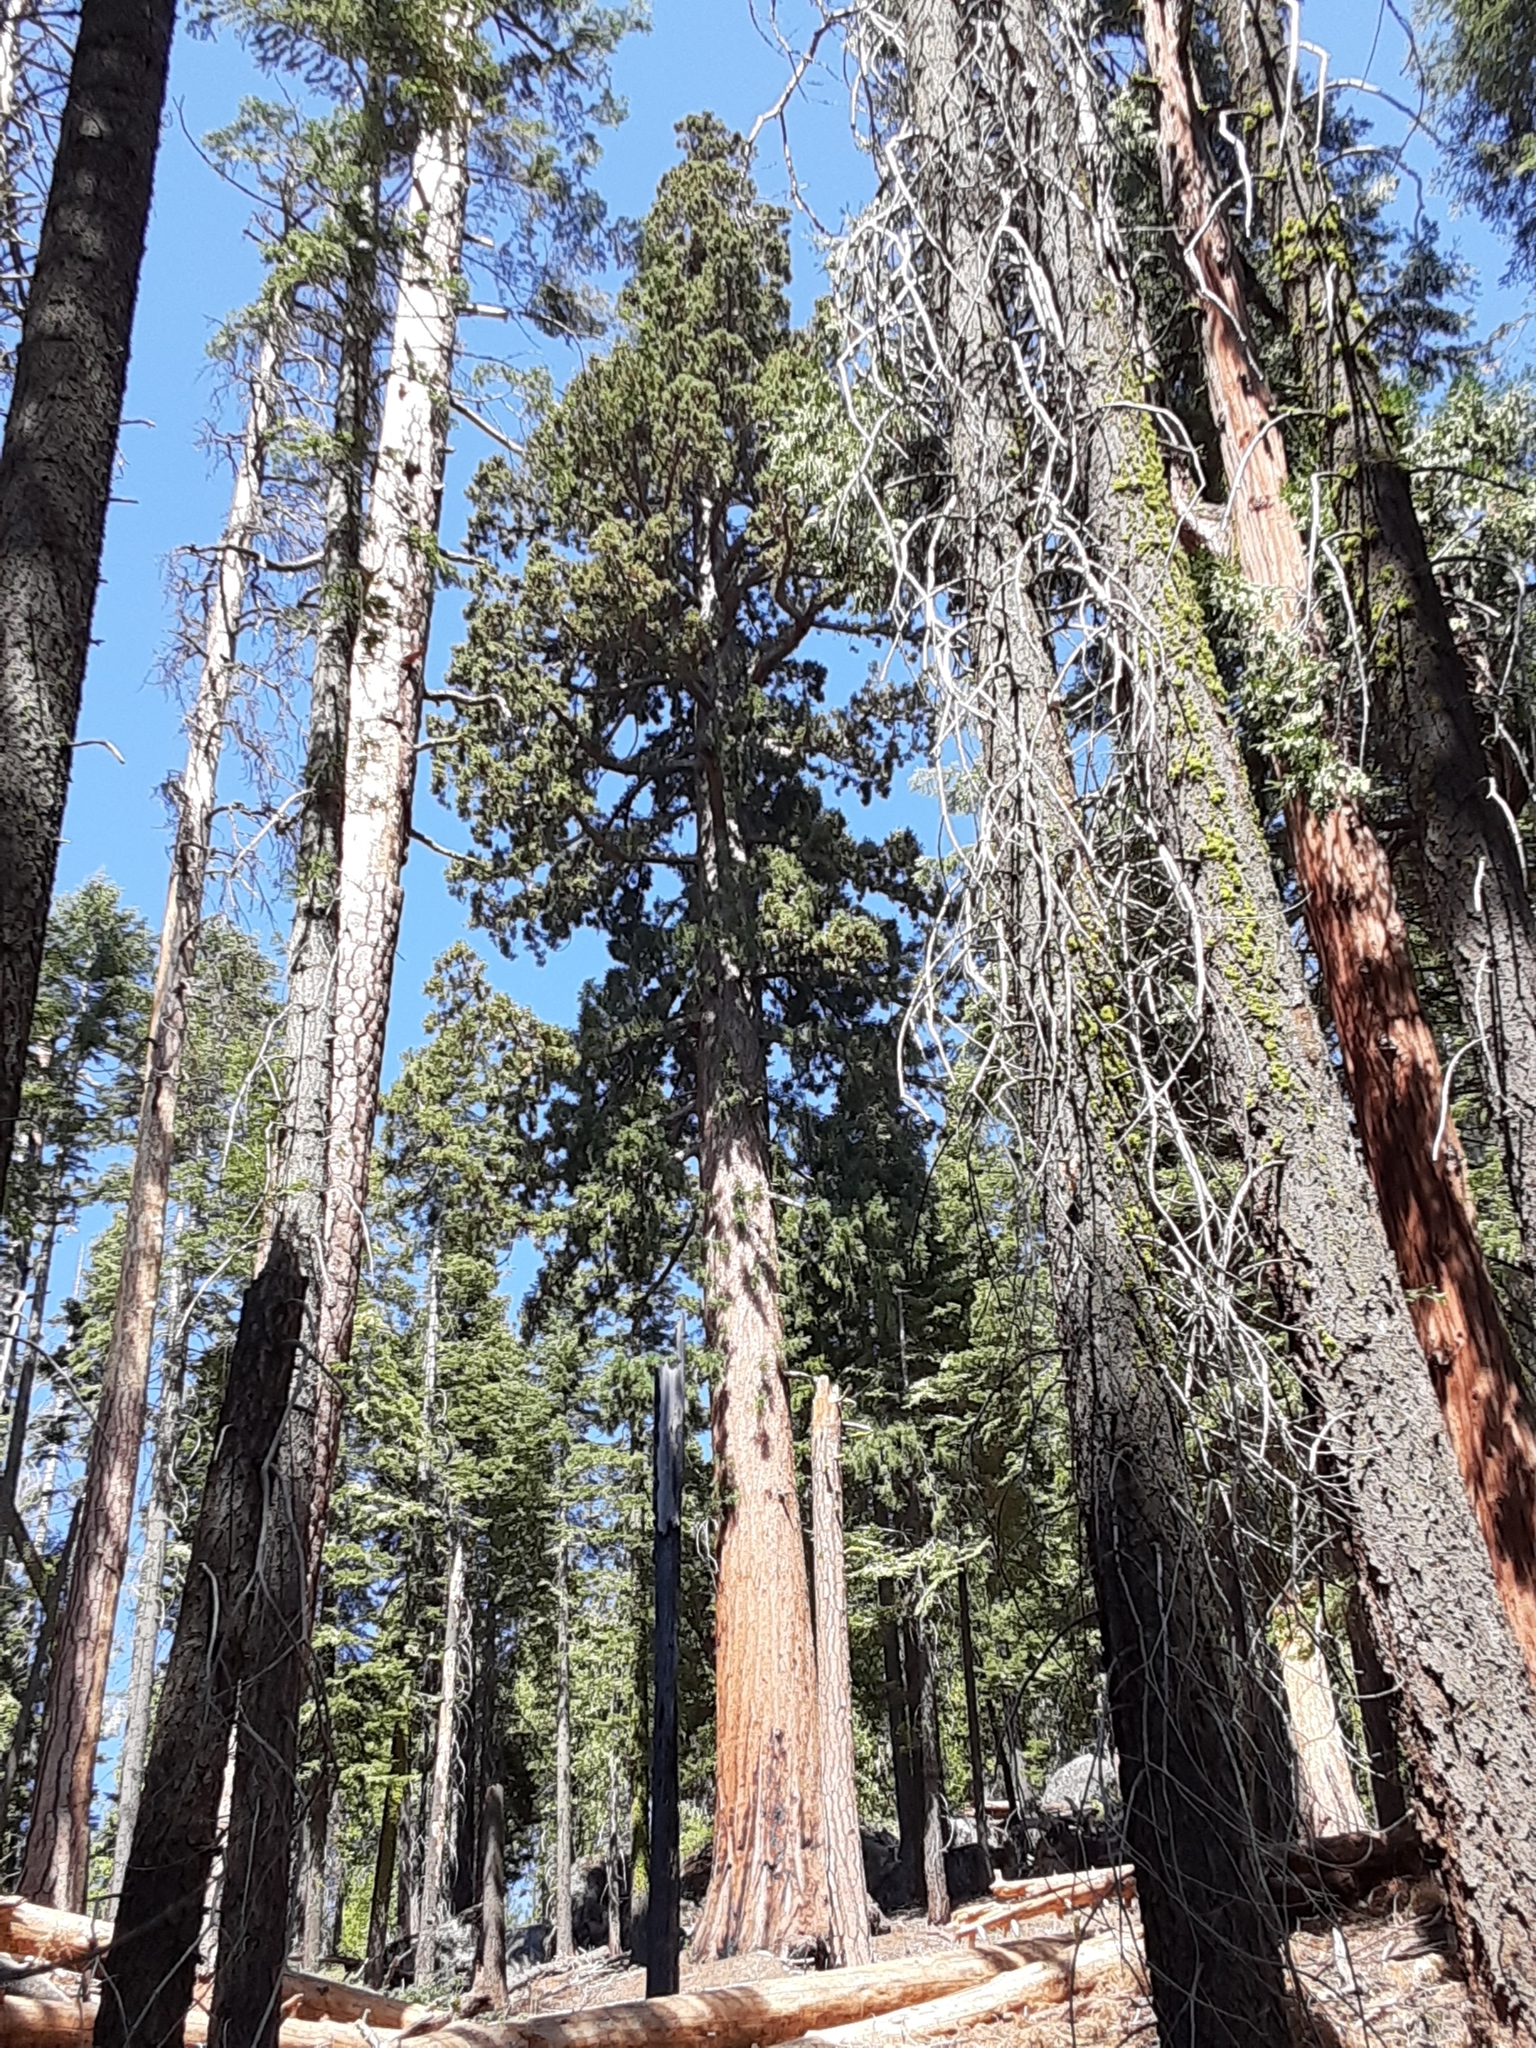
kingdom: Plantae
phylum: Tracheophyta
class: Pinopsida
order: Pinales
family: Cupressaceae
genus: Sequoiadendron
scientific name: Sequoiadendron giganteum
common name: Wellingtonia
